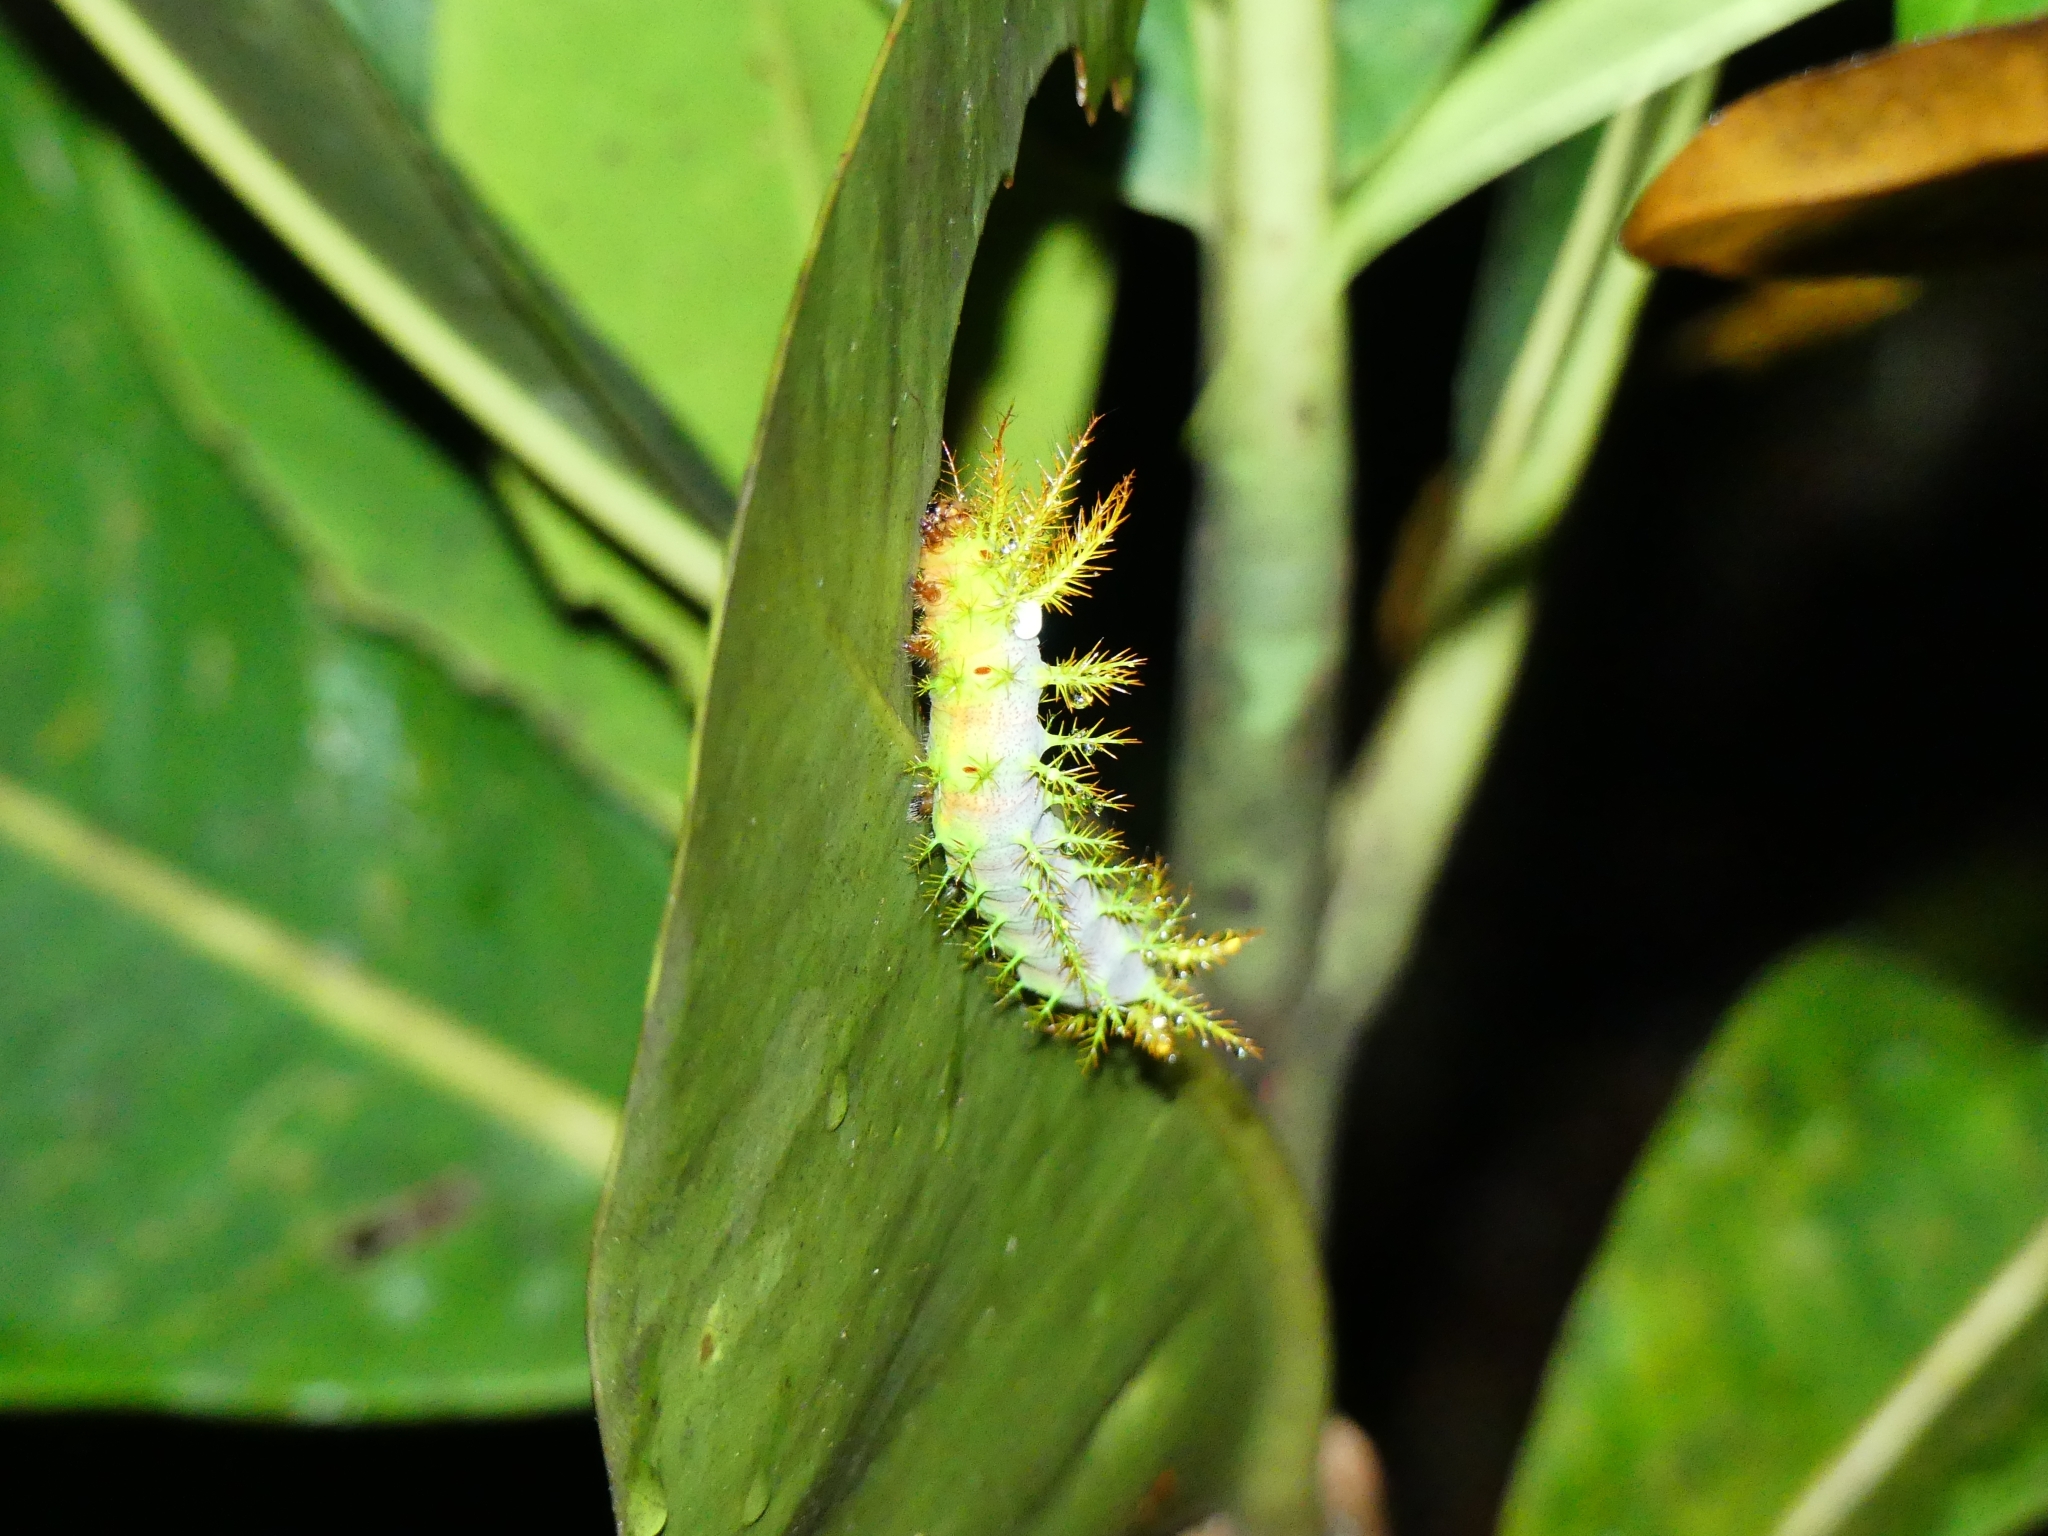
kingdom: Animalia
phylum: Arthropoda
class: Insecta
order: Lepidoptera
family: Saturniidae
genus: Dirphia
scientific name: Dirphia tarquinia
